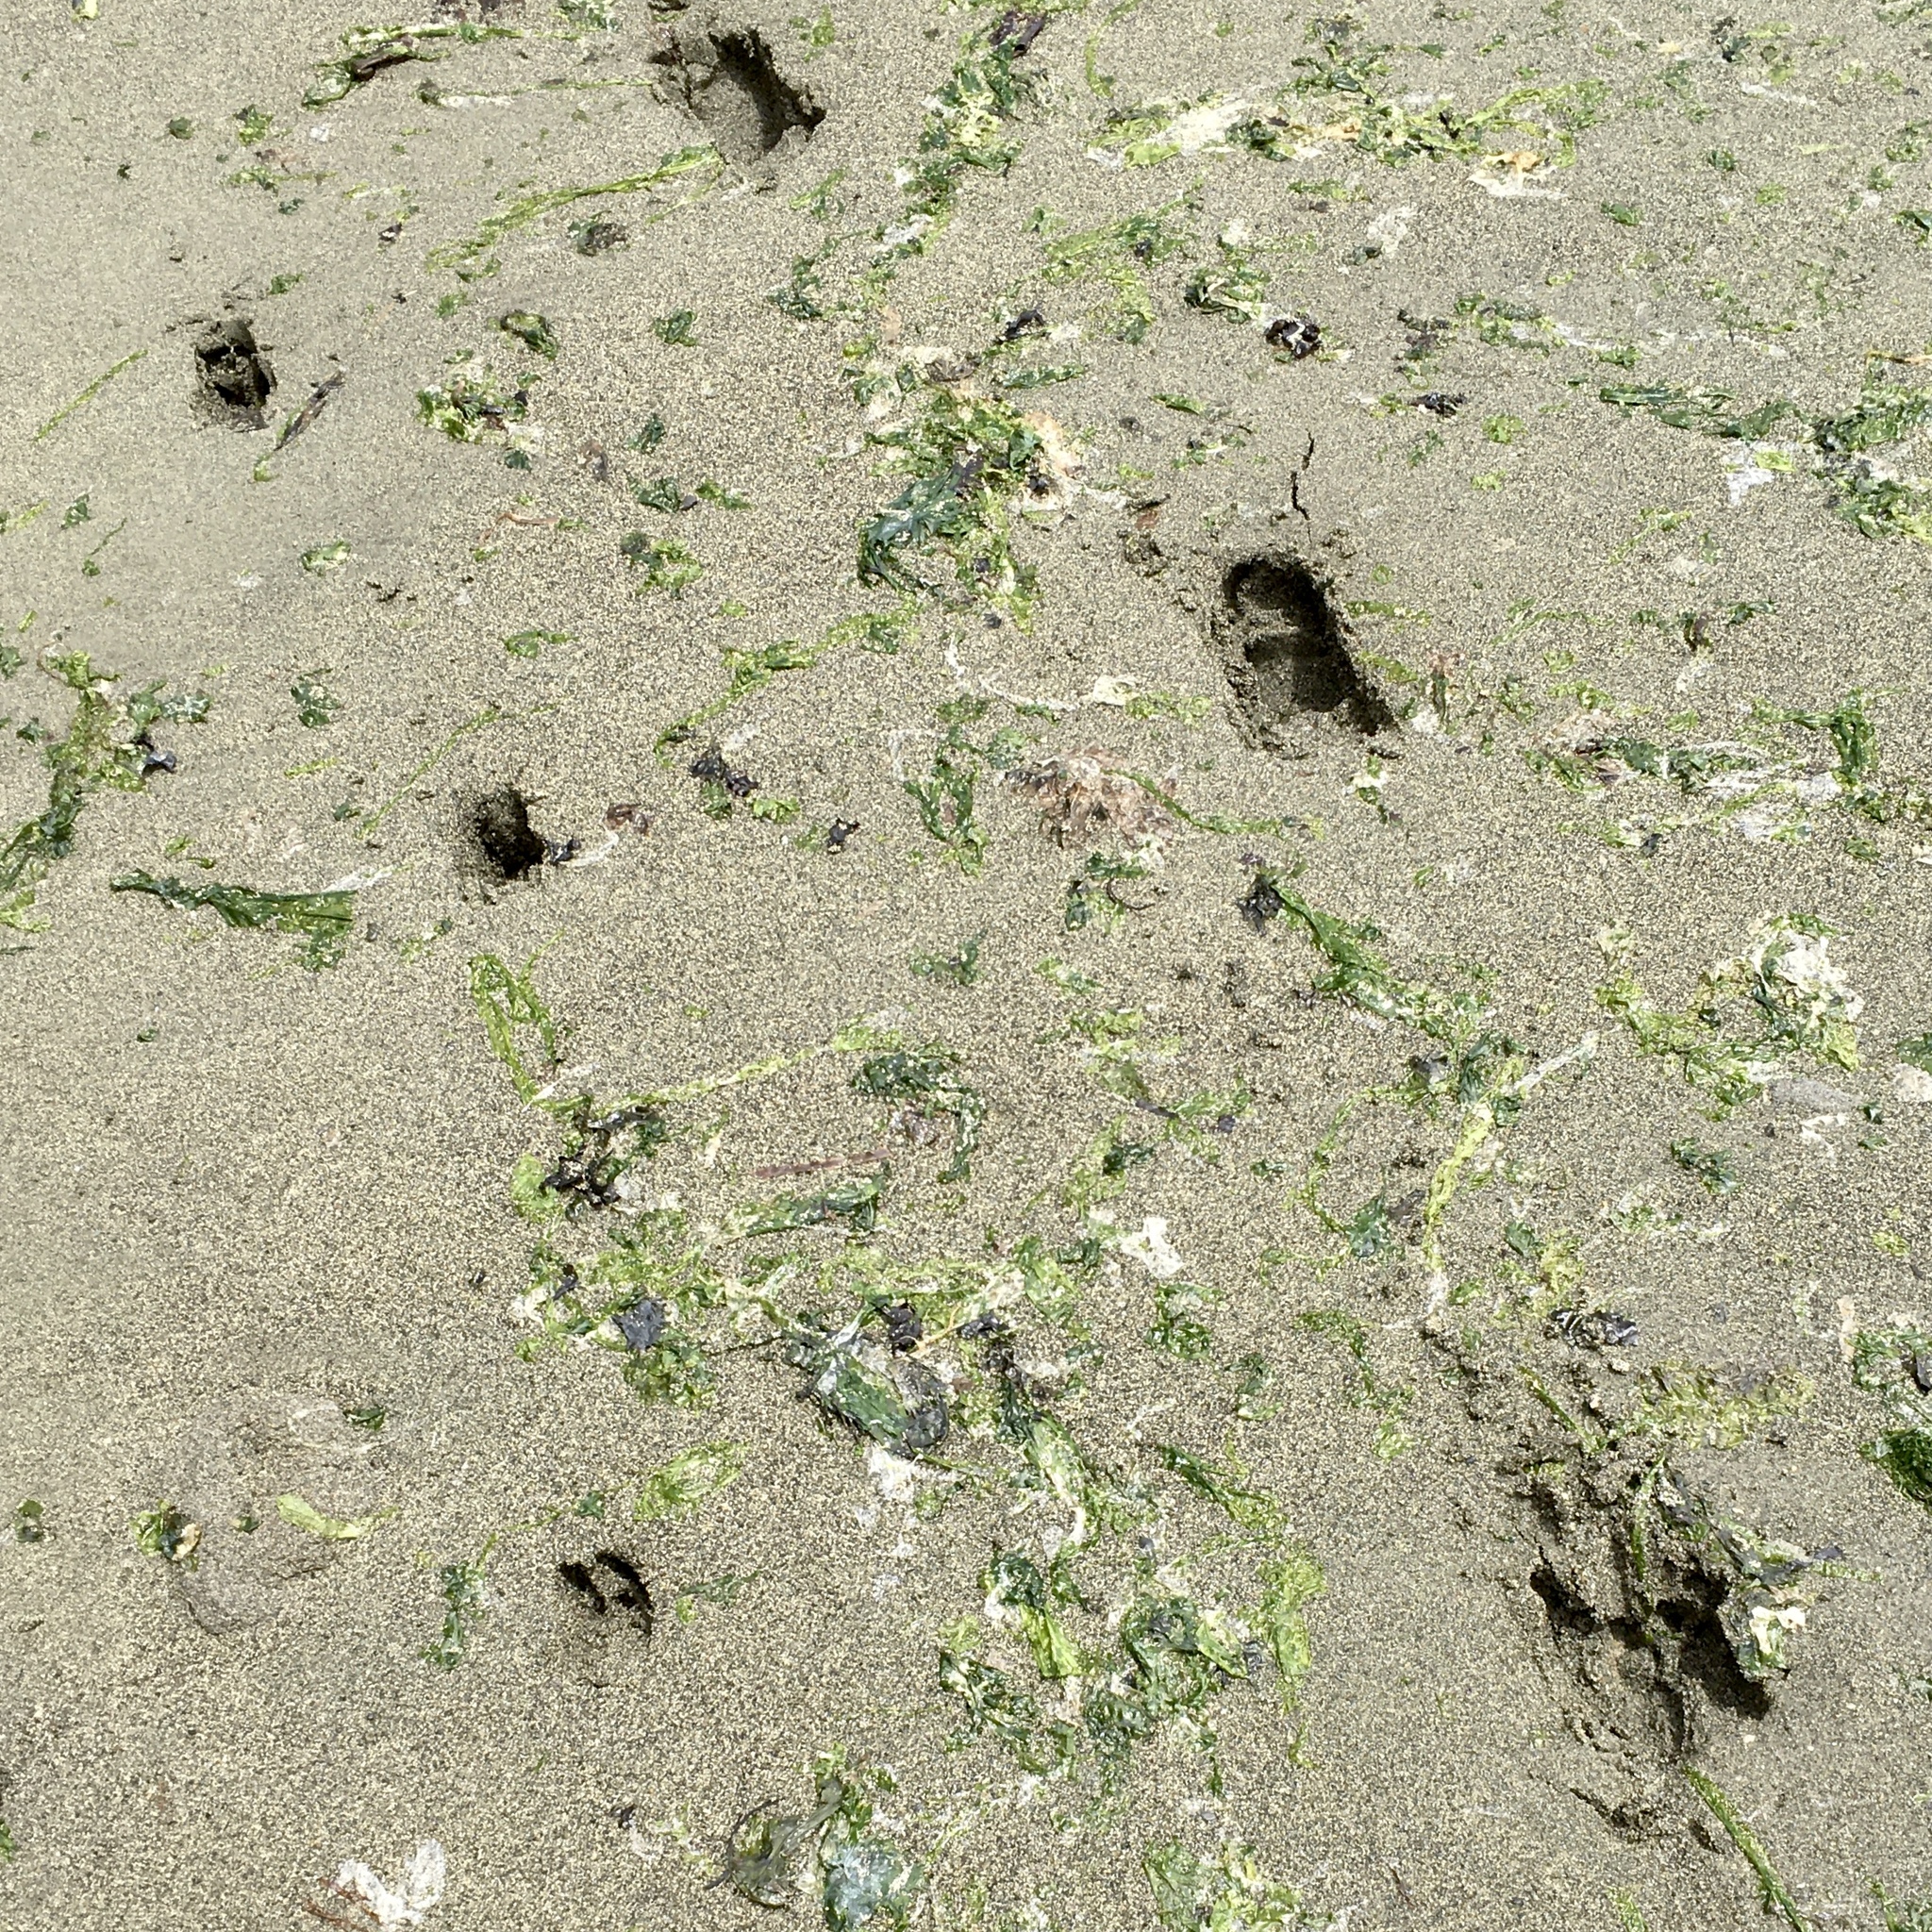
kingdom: Animalia
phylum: Chordata
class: Mammalia
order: Artiodactyla
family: Cervidae
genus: Odocoileus
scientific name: Odocoileus hemionus
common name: Mule deer
